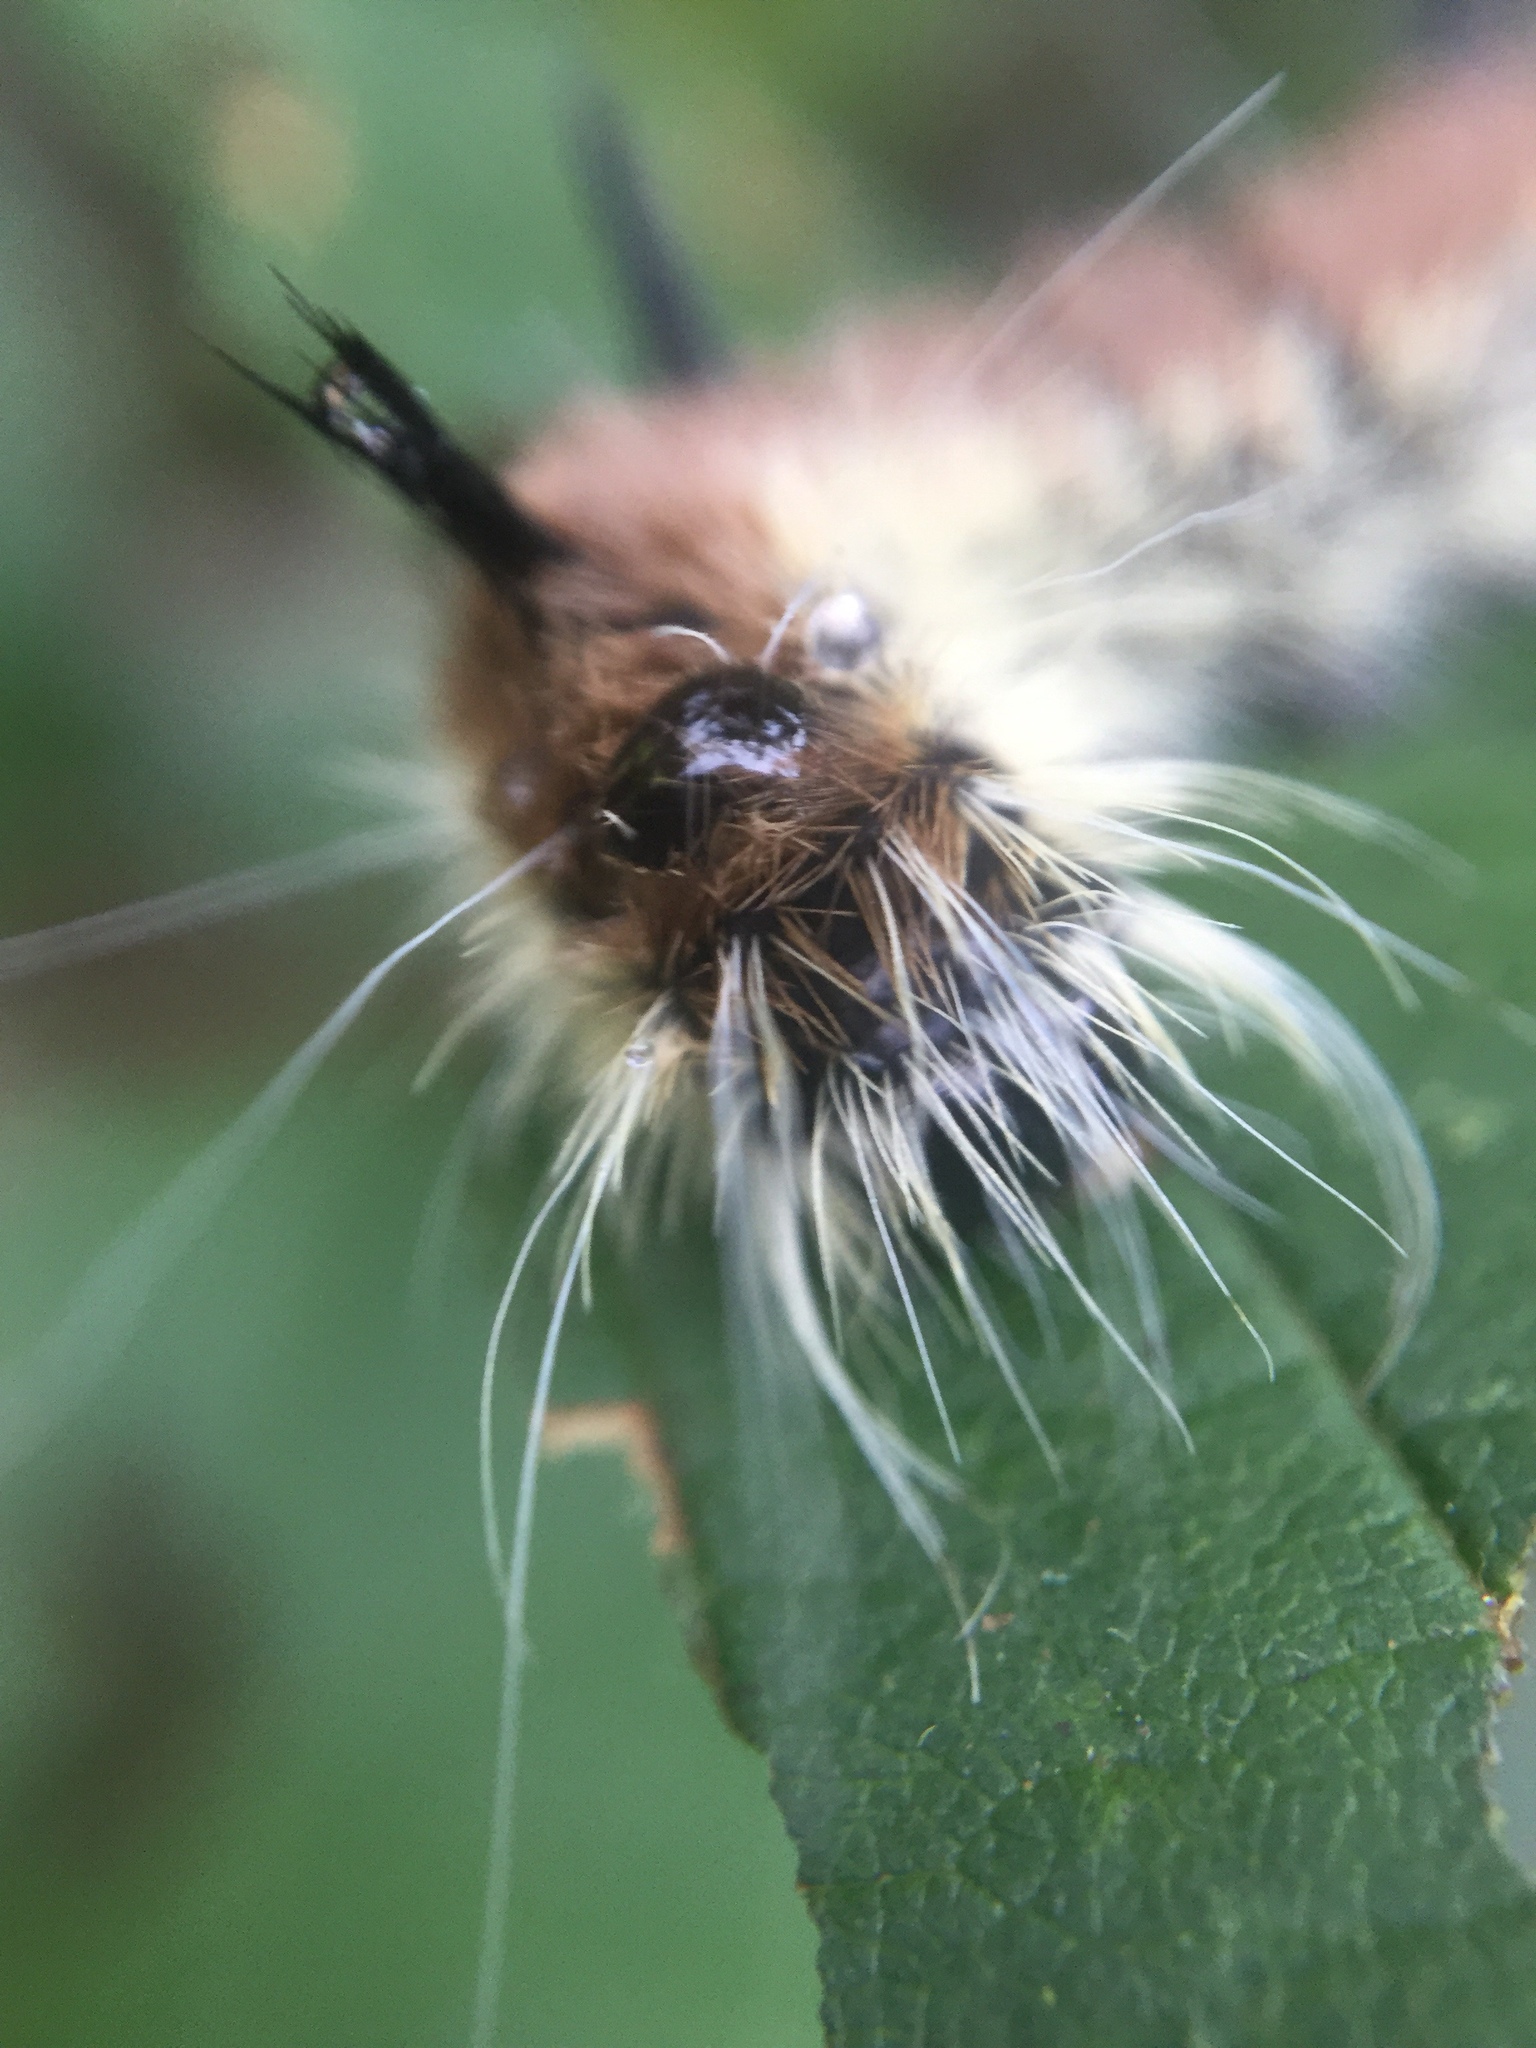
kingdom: Animalia
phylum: Arthropoda
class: Insecta
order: Lepidoptera
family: Noctuidae
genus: Acronicta
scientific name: Acronicta insita
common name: Large gray dagger
